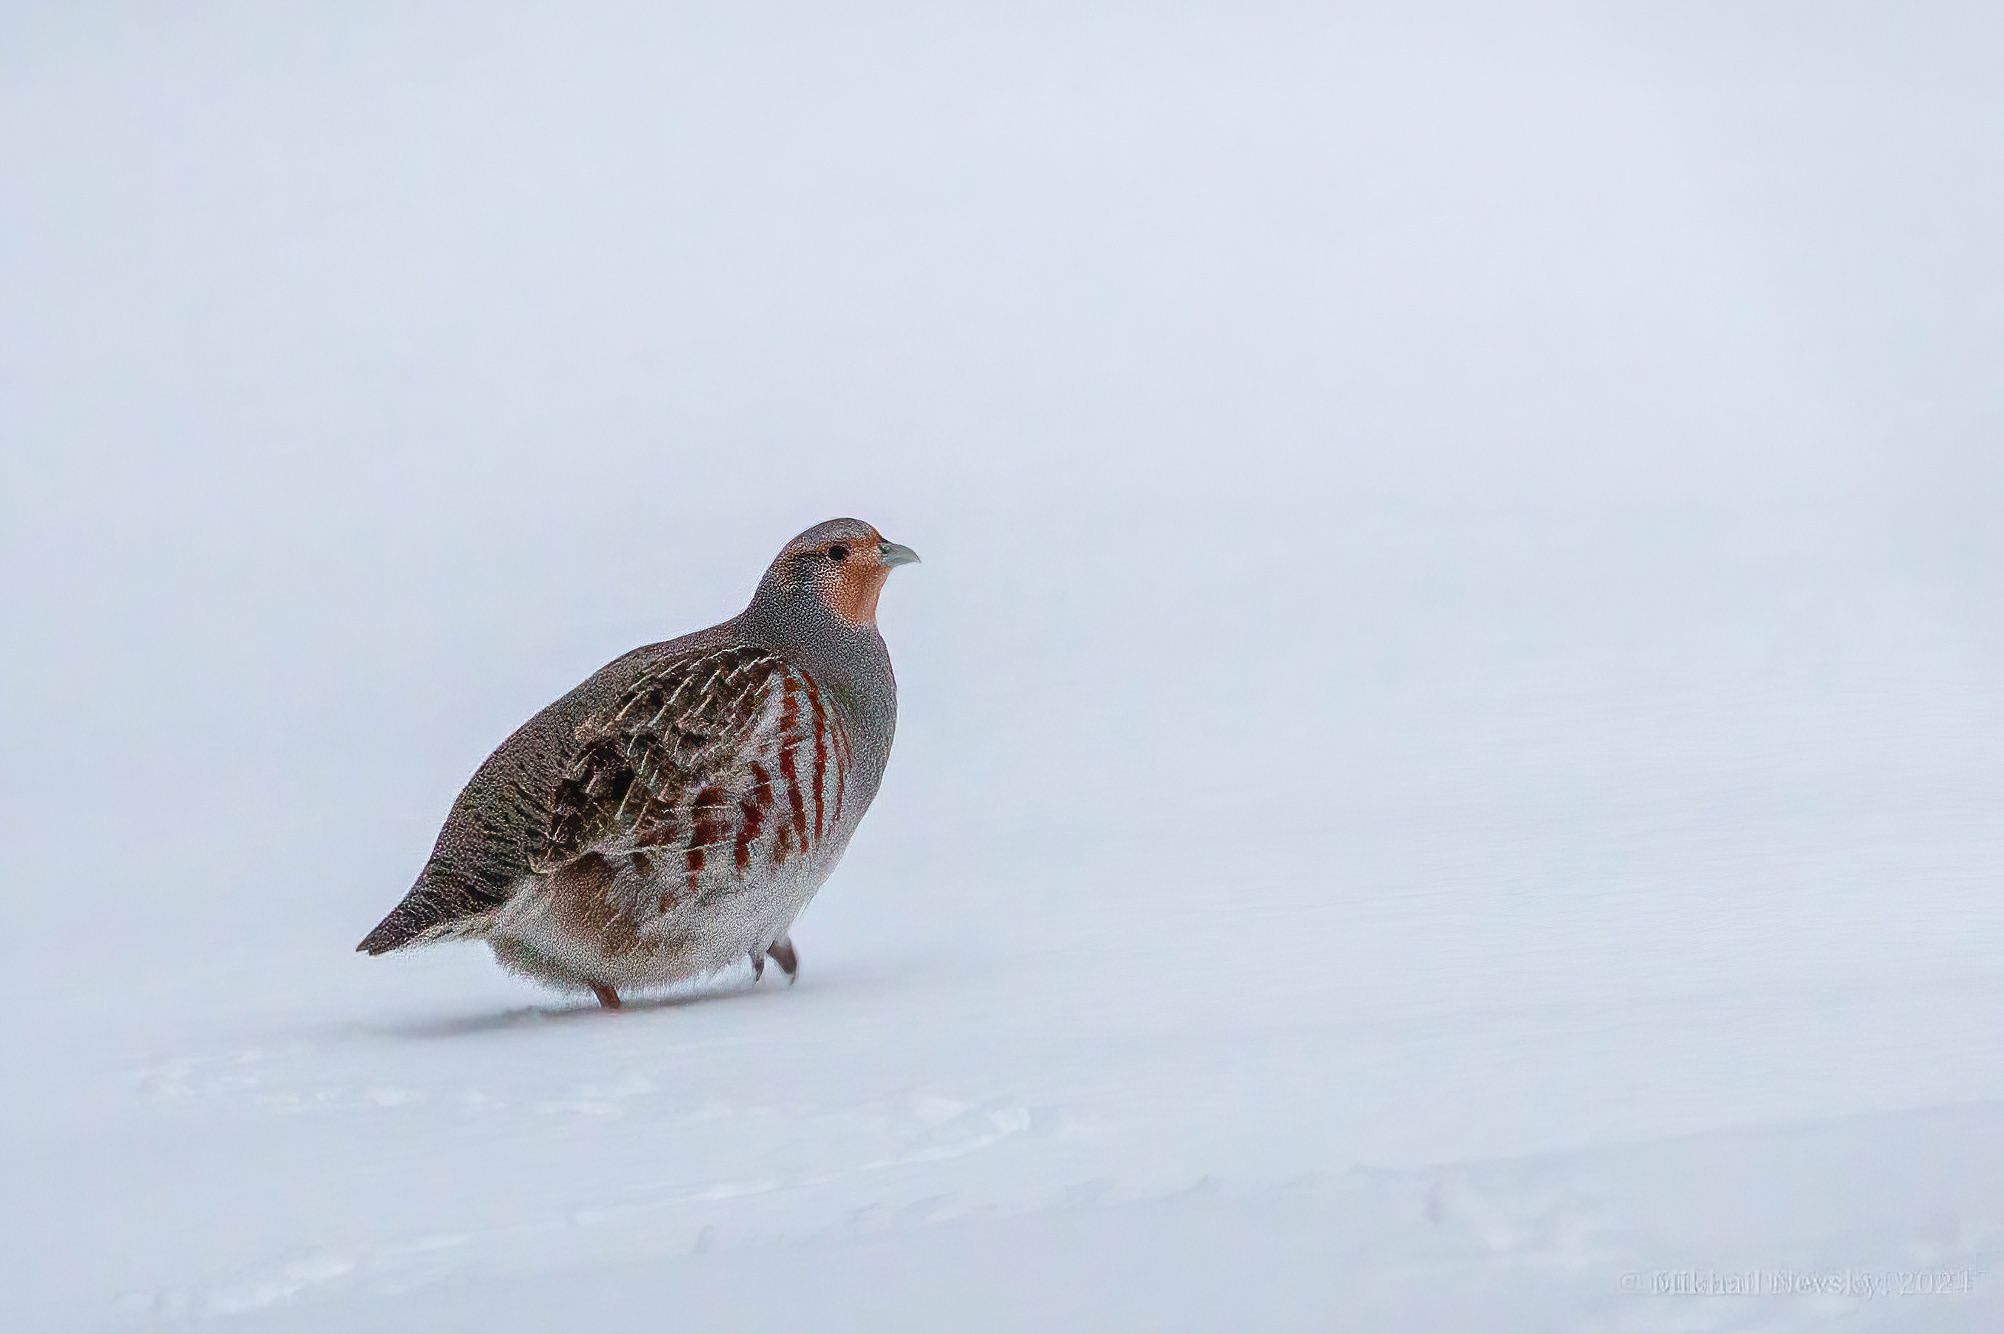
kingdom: Animalia
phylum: Chordata
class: Aves
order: Galliformes
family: Phasianidae
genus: Perdix
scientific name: Perdix perdix
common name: Grey partridge
